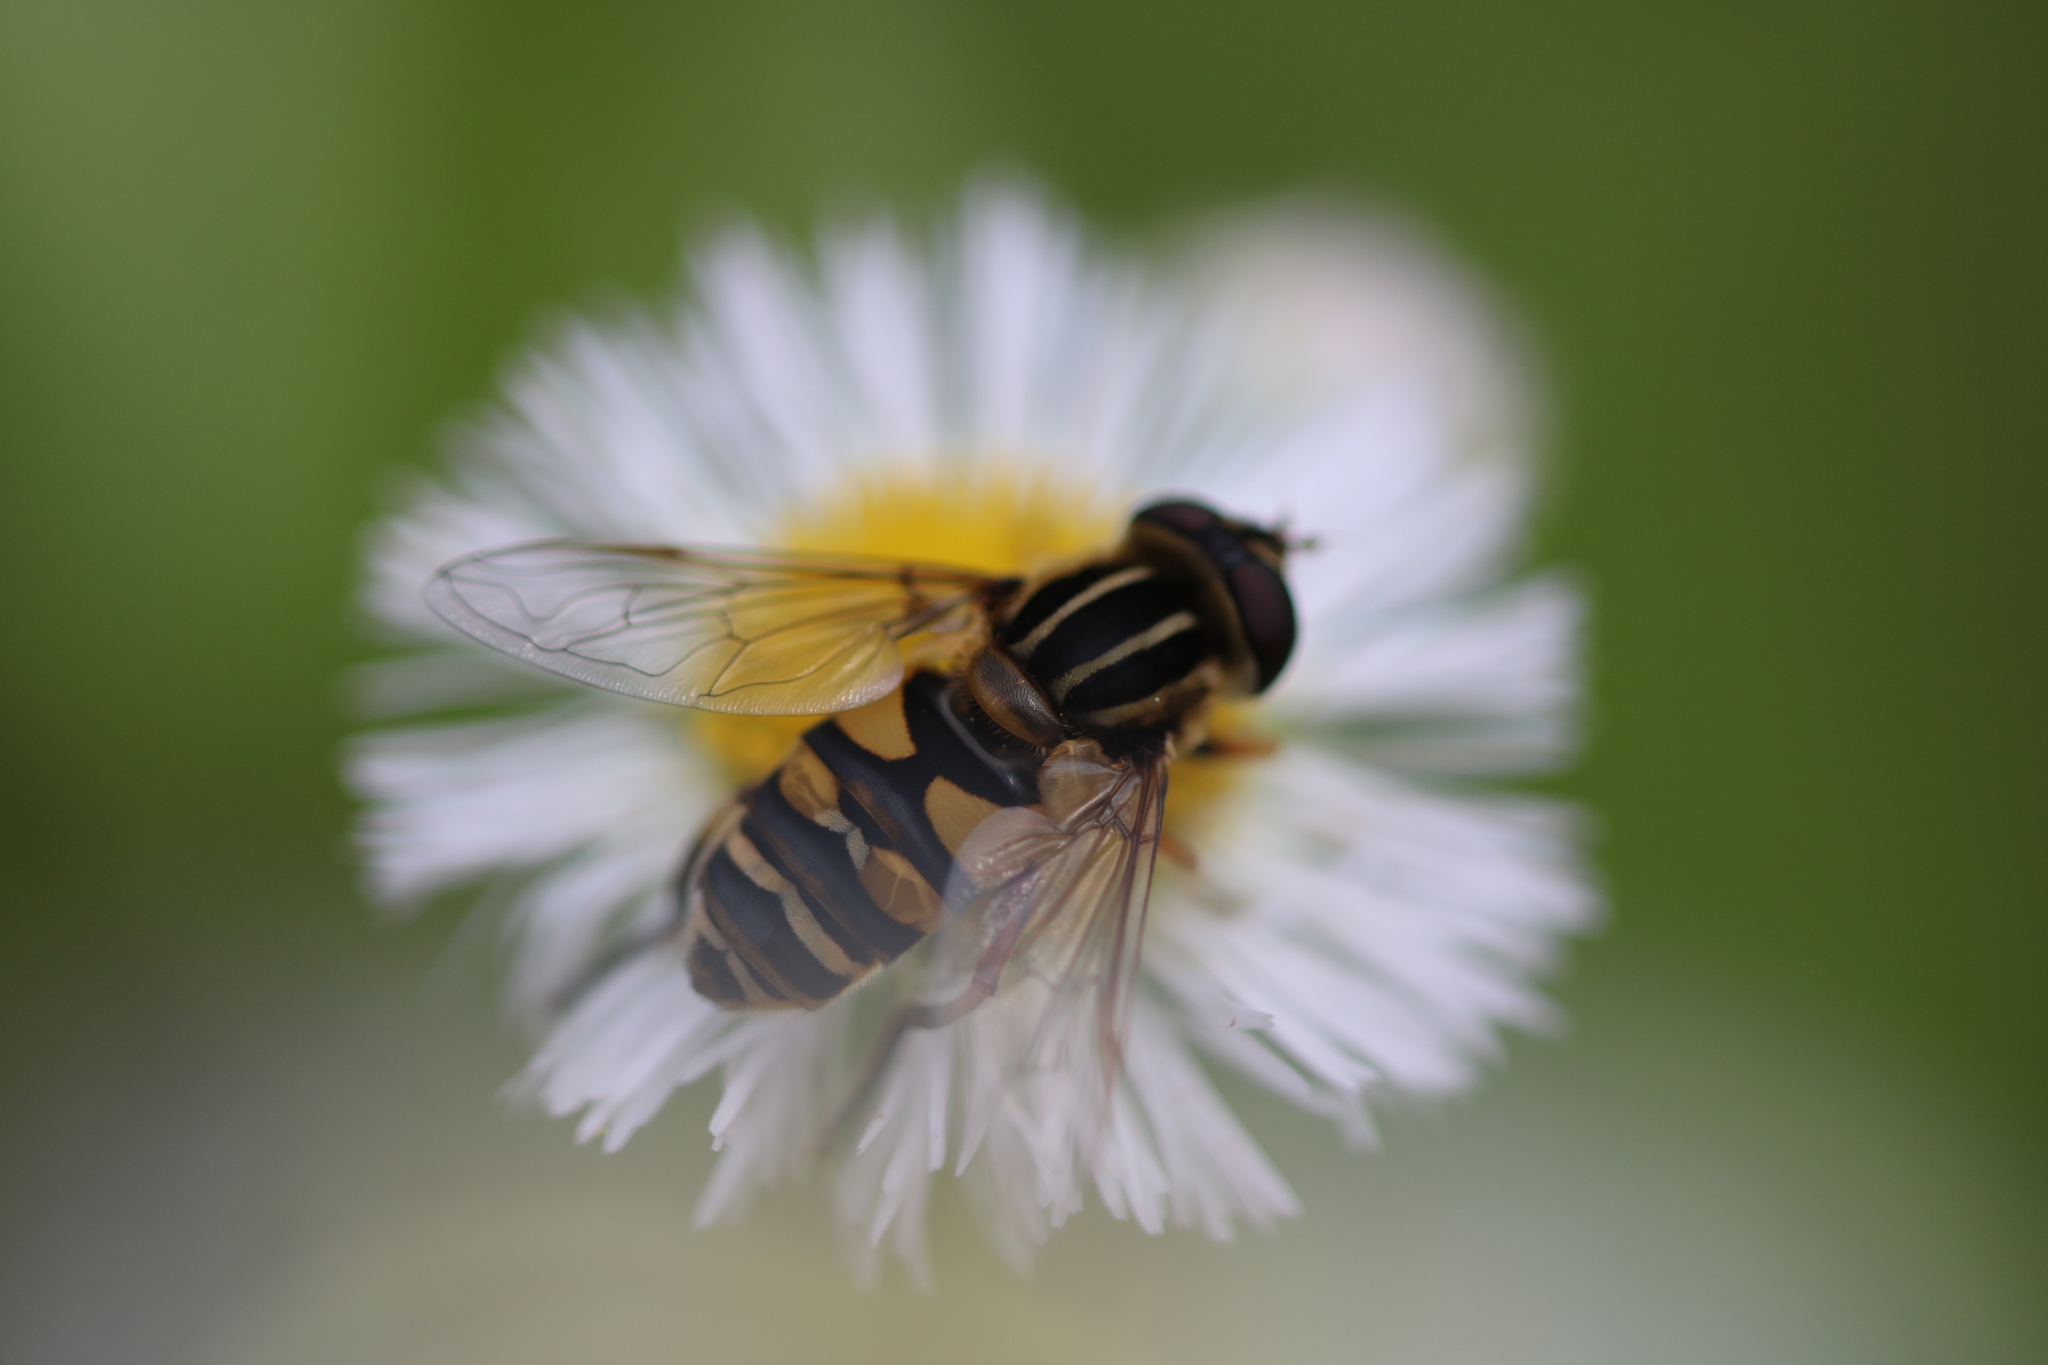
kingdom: Animalia
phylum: Arthropoda
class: Insecta
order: Diptera
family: Syrphidae
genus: Helophilus
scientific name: Helophilus fasciatus
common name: Narrow-headed marsh fly
